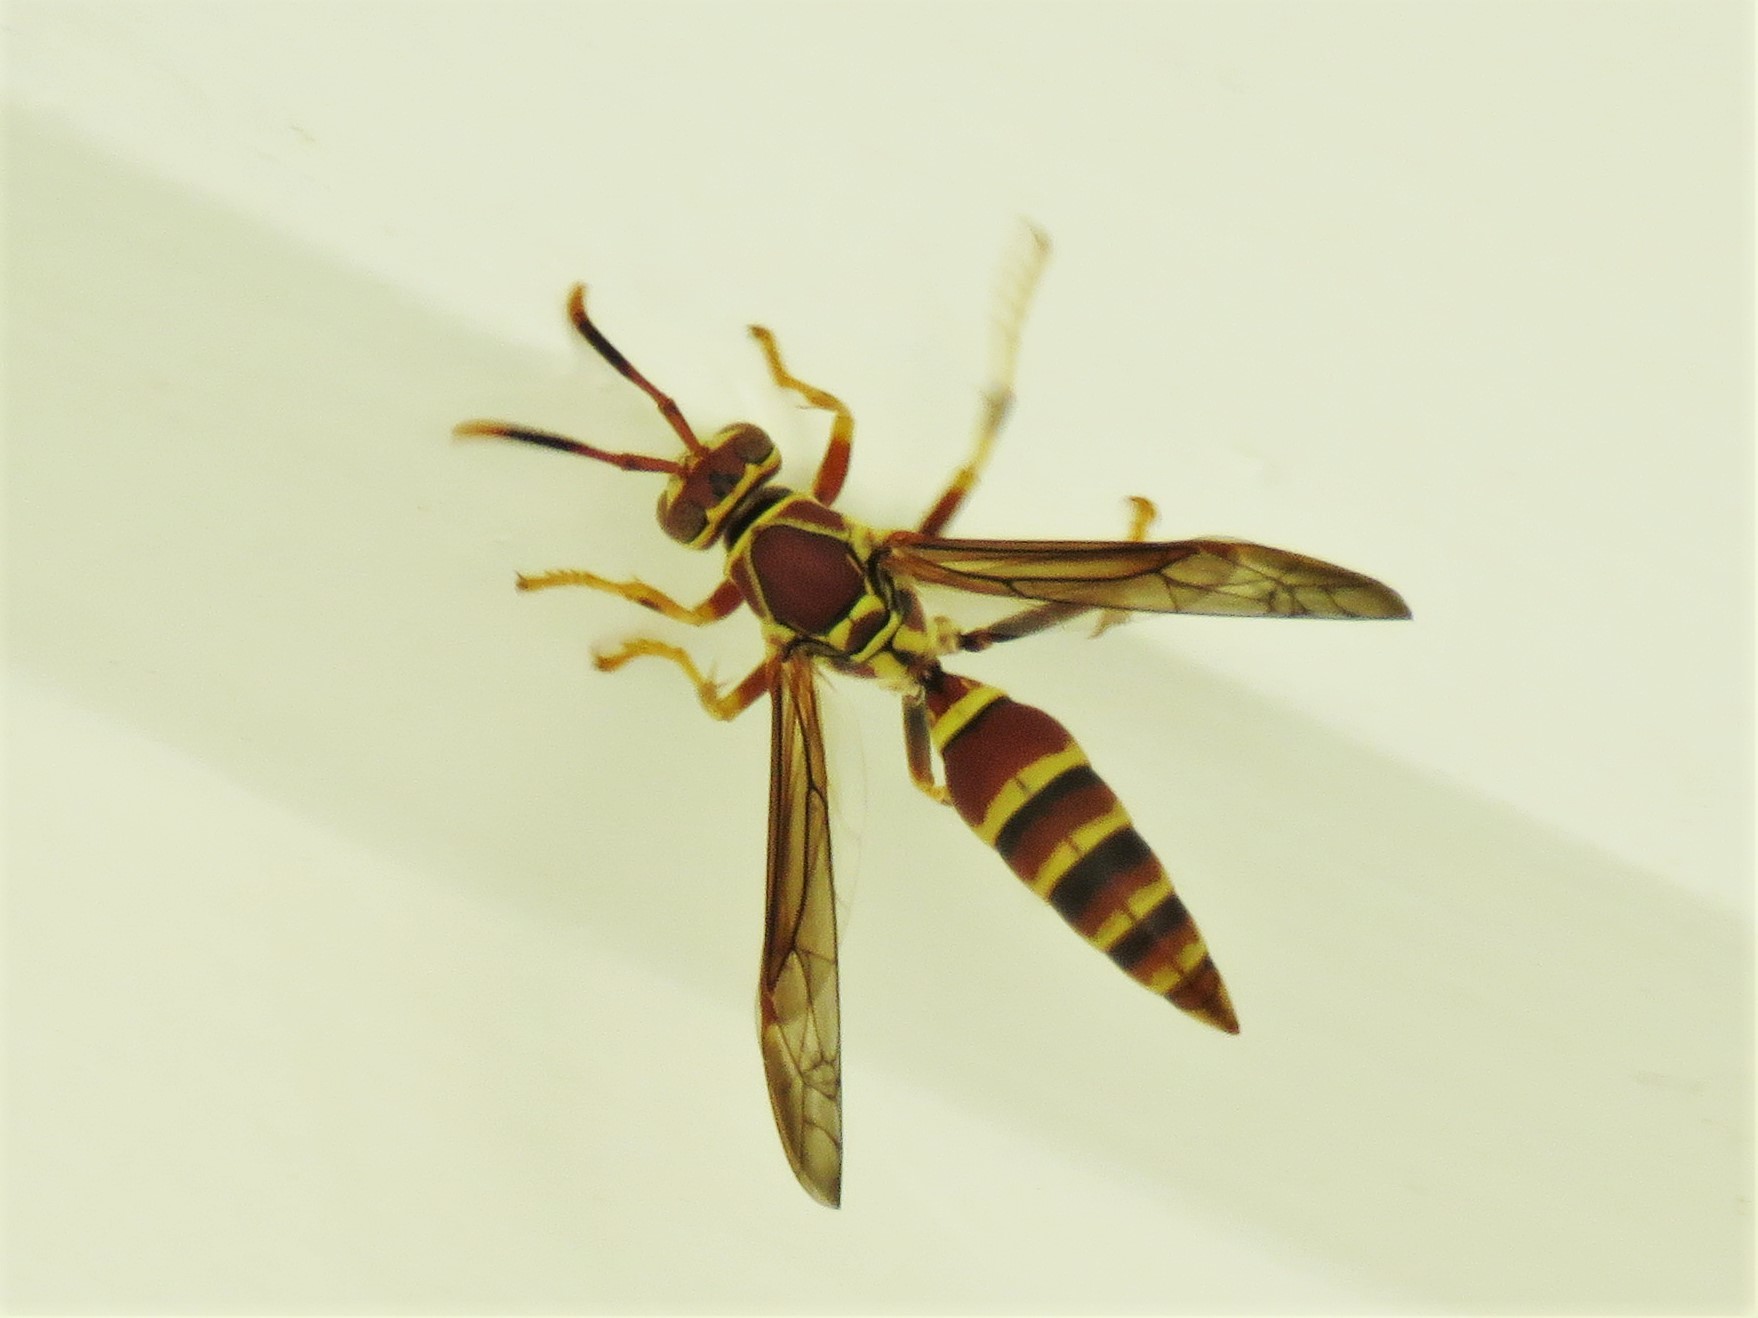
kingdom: Animalia
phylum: Arthropoda
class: Insecta
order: Hymenoptera
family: Eumenidae
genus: Polistes
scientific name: Polistes exclamans
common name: Paper wasp
